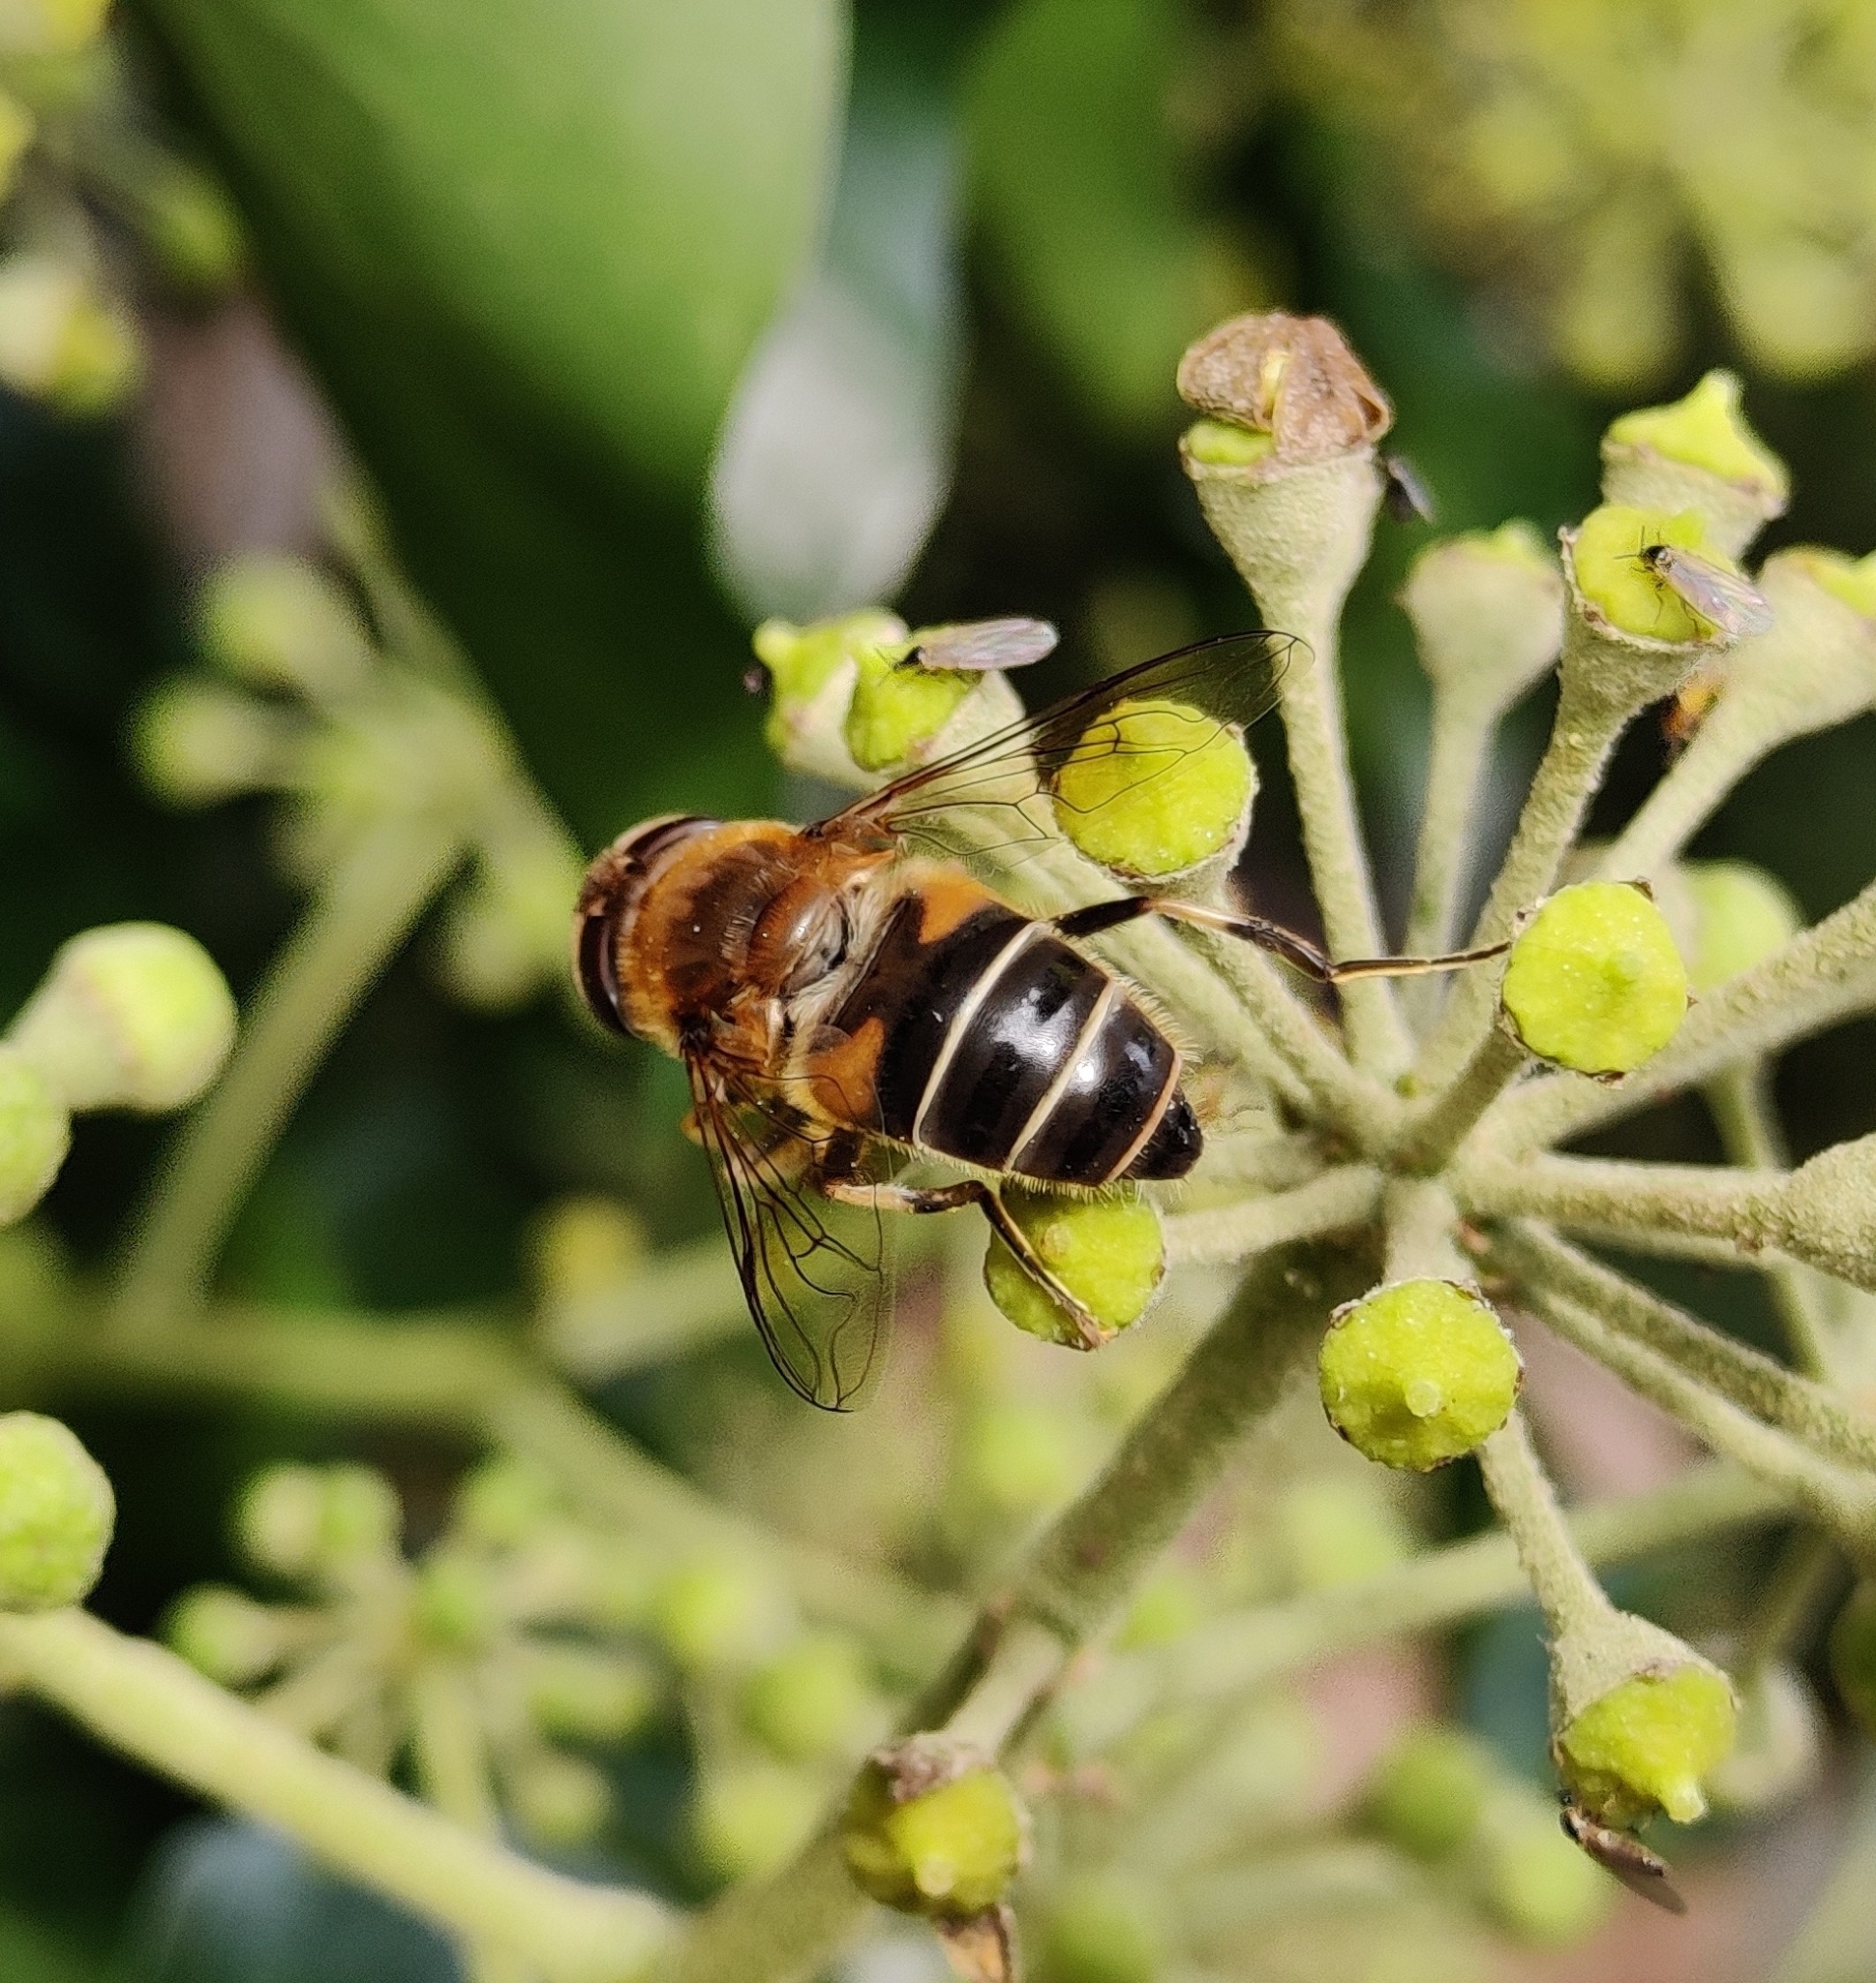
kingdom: Animalia
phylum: Arthropoda
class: Insecta
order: Diptera
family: Syrphidae
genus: Eristalis
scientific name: Eristalis pertinax
